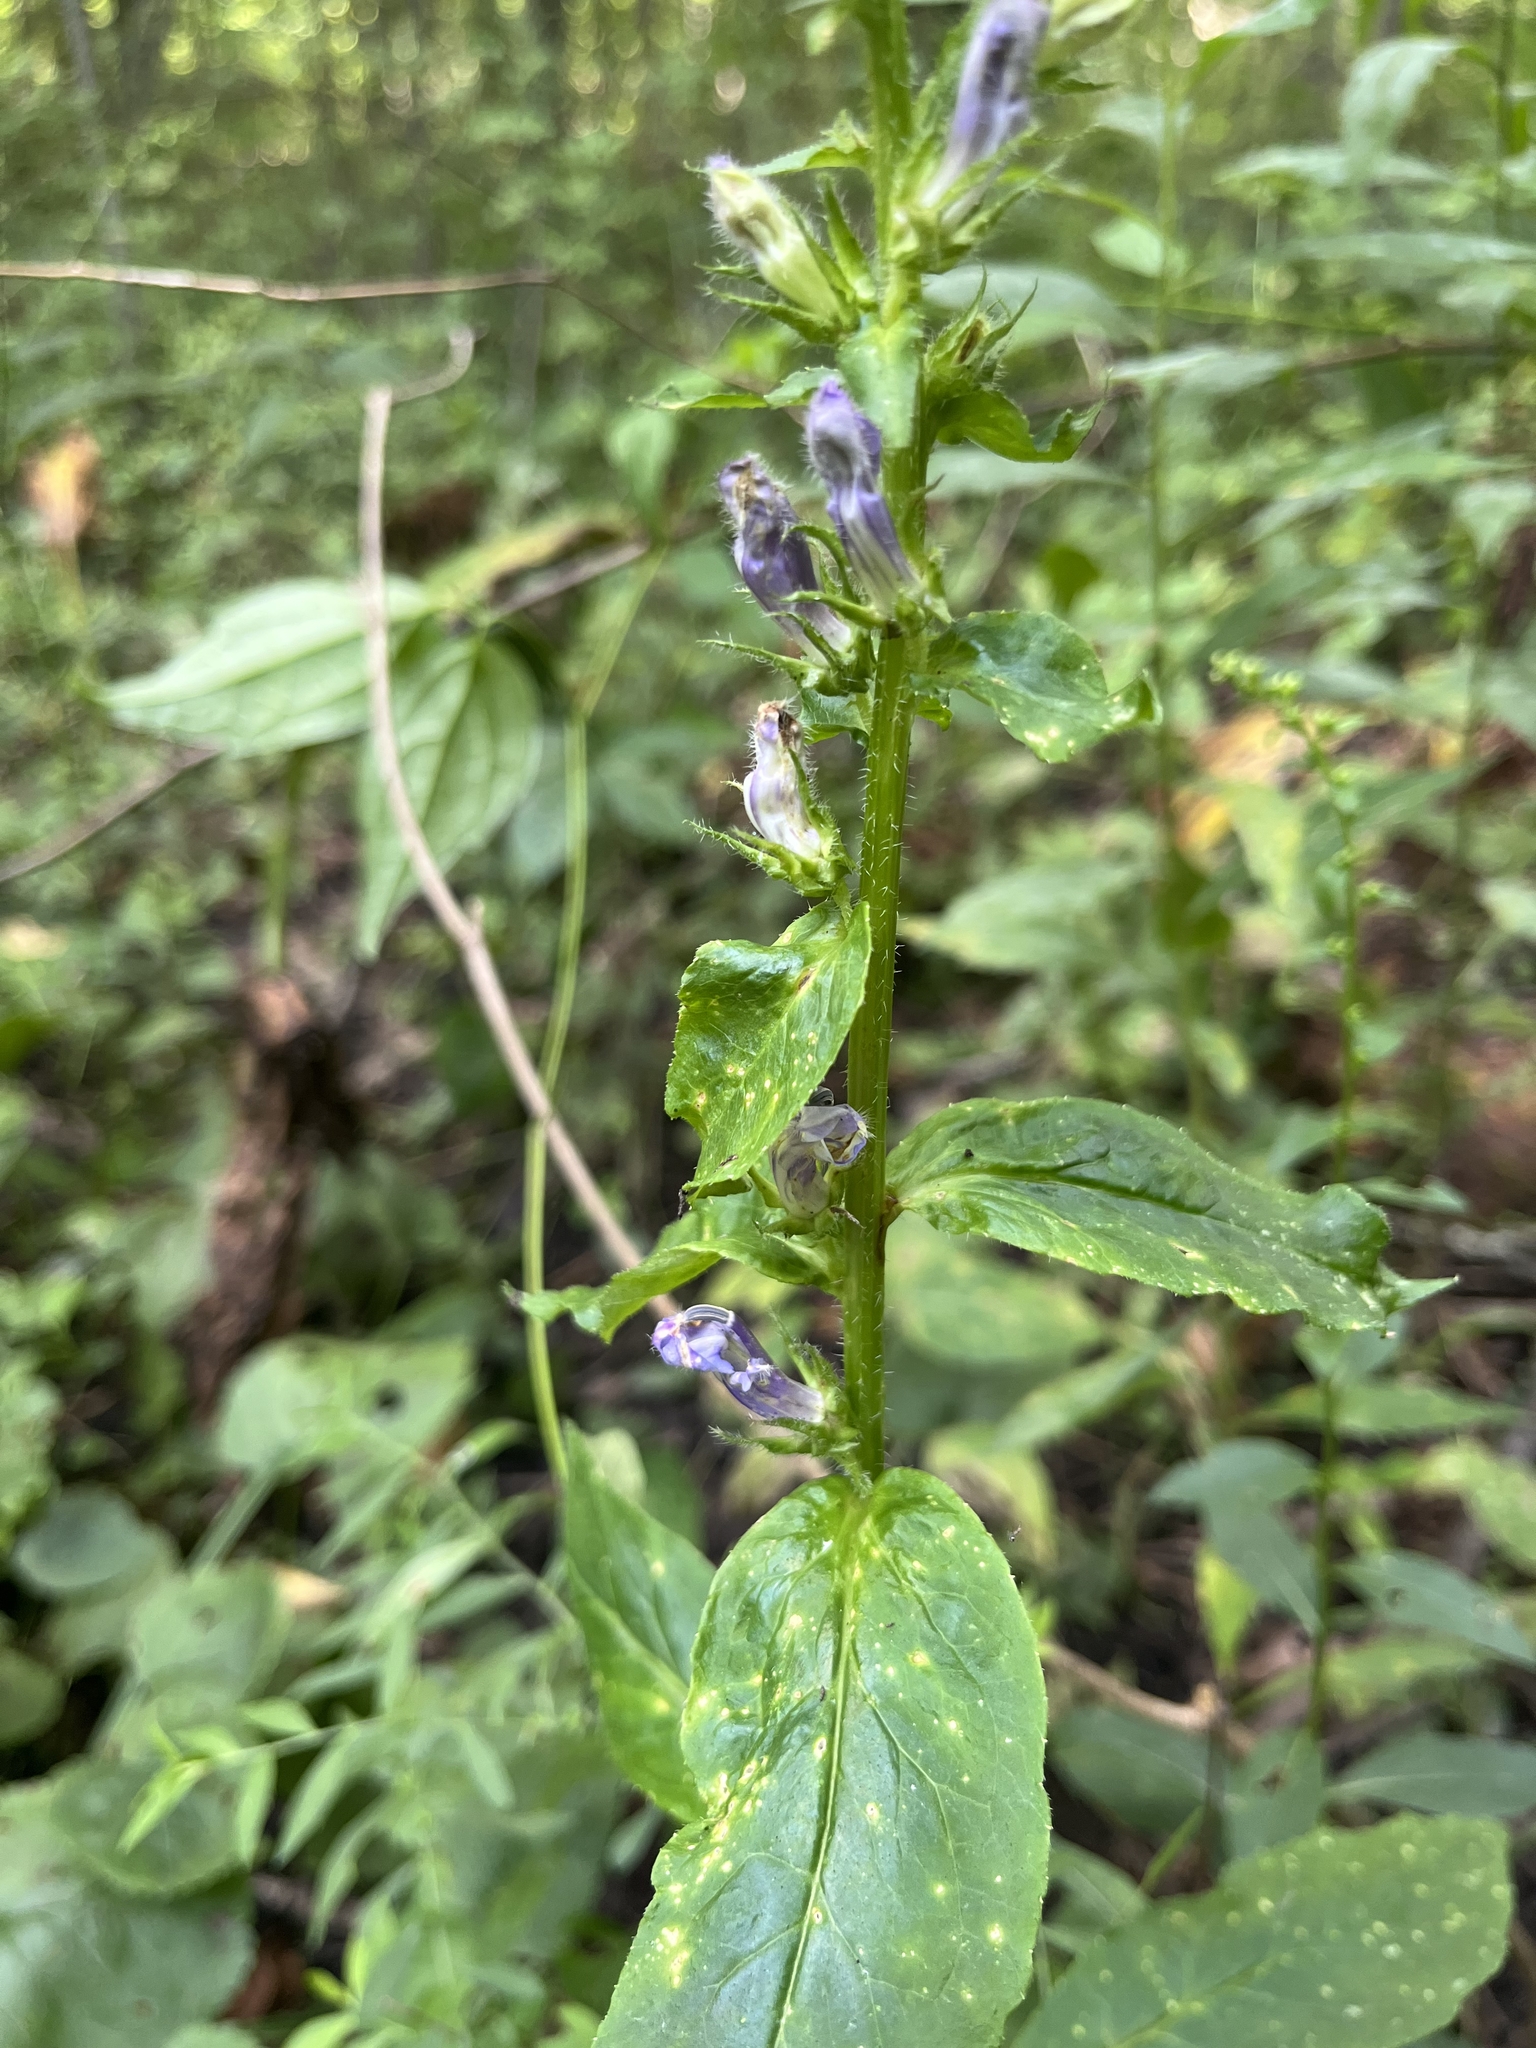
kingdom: Plantae
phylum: Tracheophyta
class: Magnoliopsida
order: Asterales
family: Campanulaceae
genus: Lobelia
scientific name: Lobelia siphilitica
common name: Great lobelia
